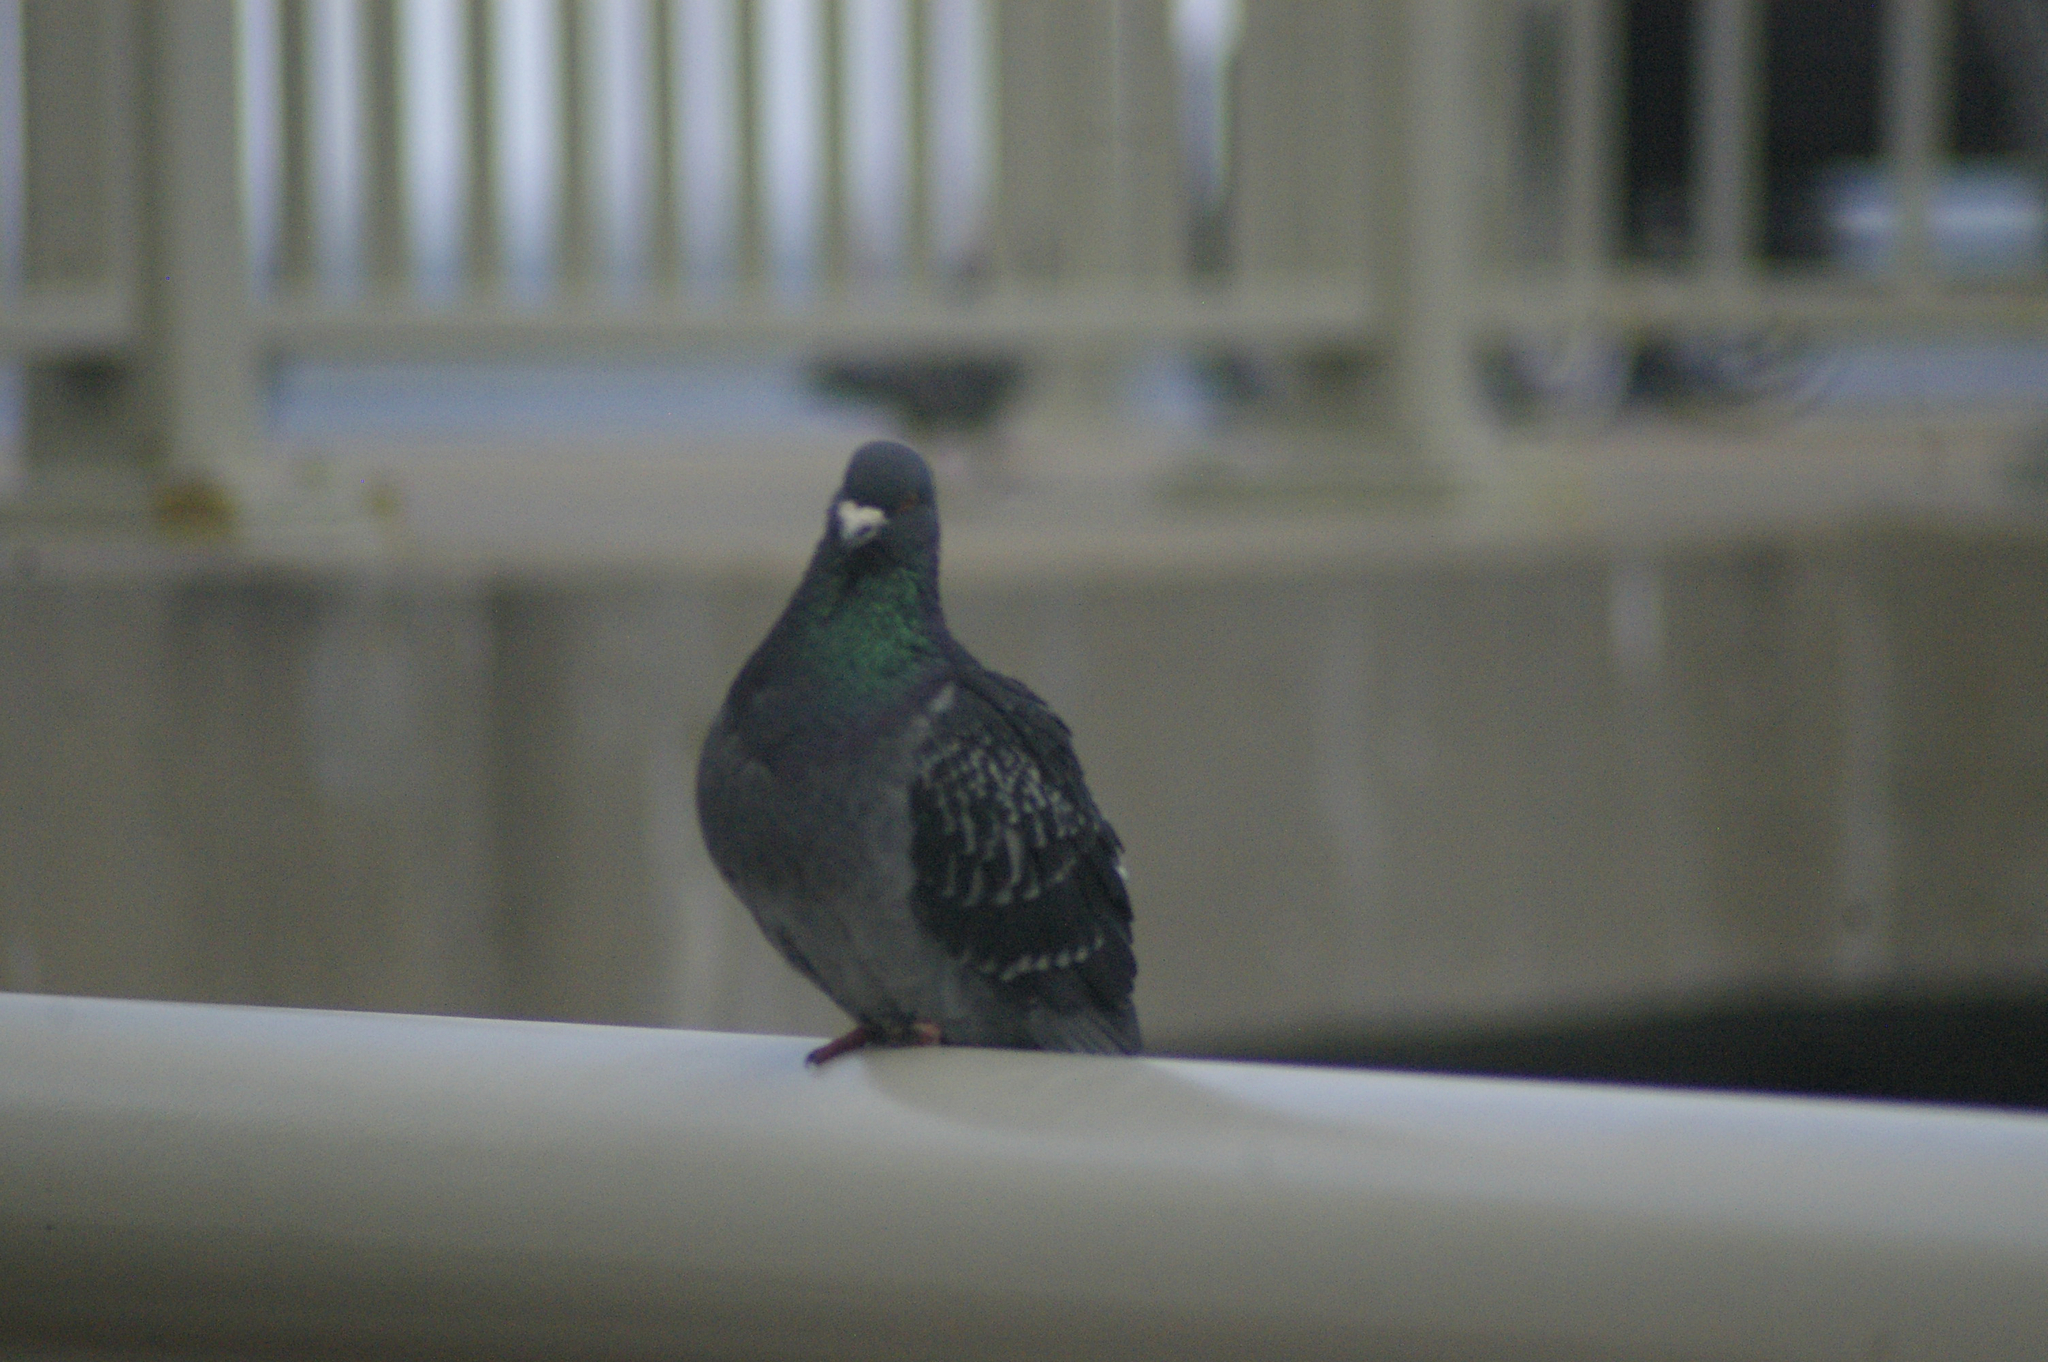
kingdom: Animalia
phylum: Chordata
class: Aves
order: Columbiformes
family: Columbidae
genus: Columba
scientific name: Columba livia
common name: Rock pigeon
